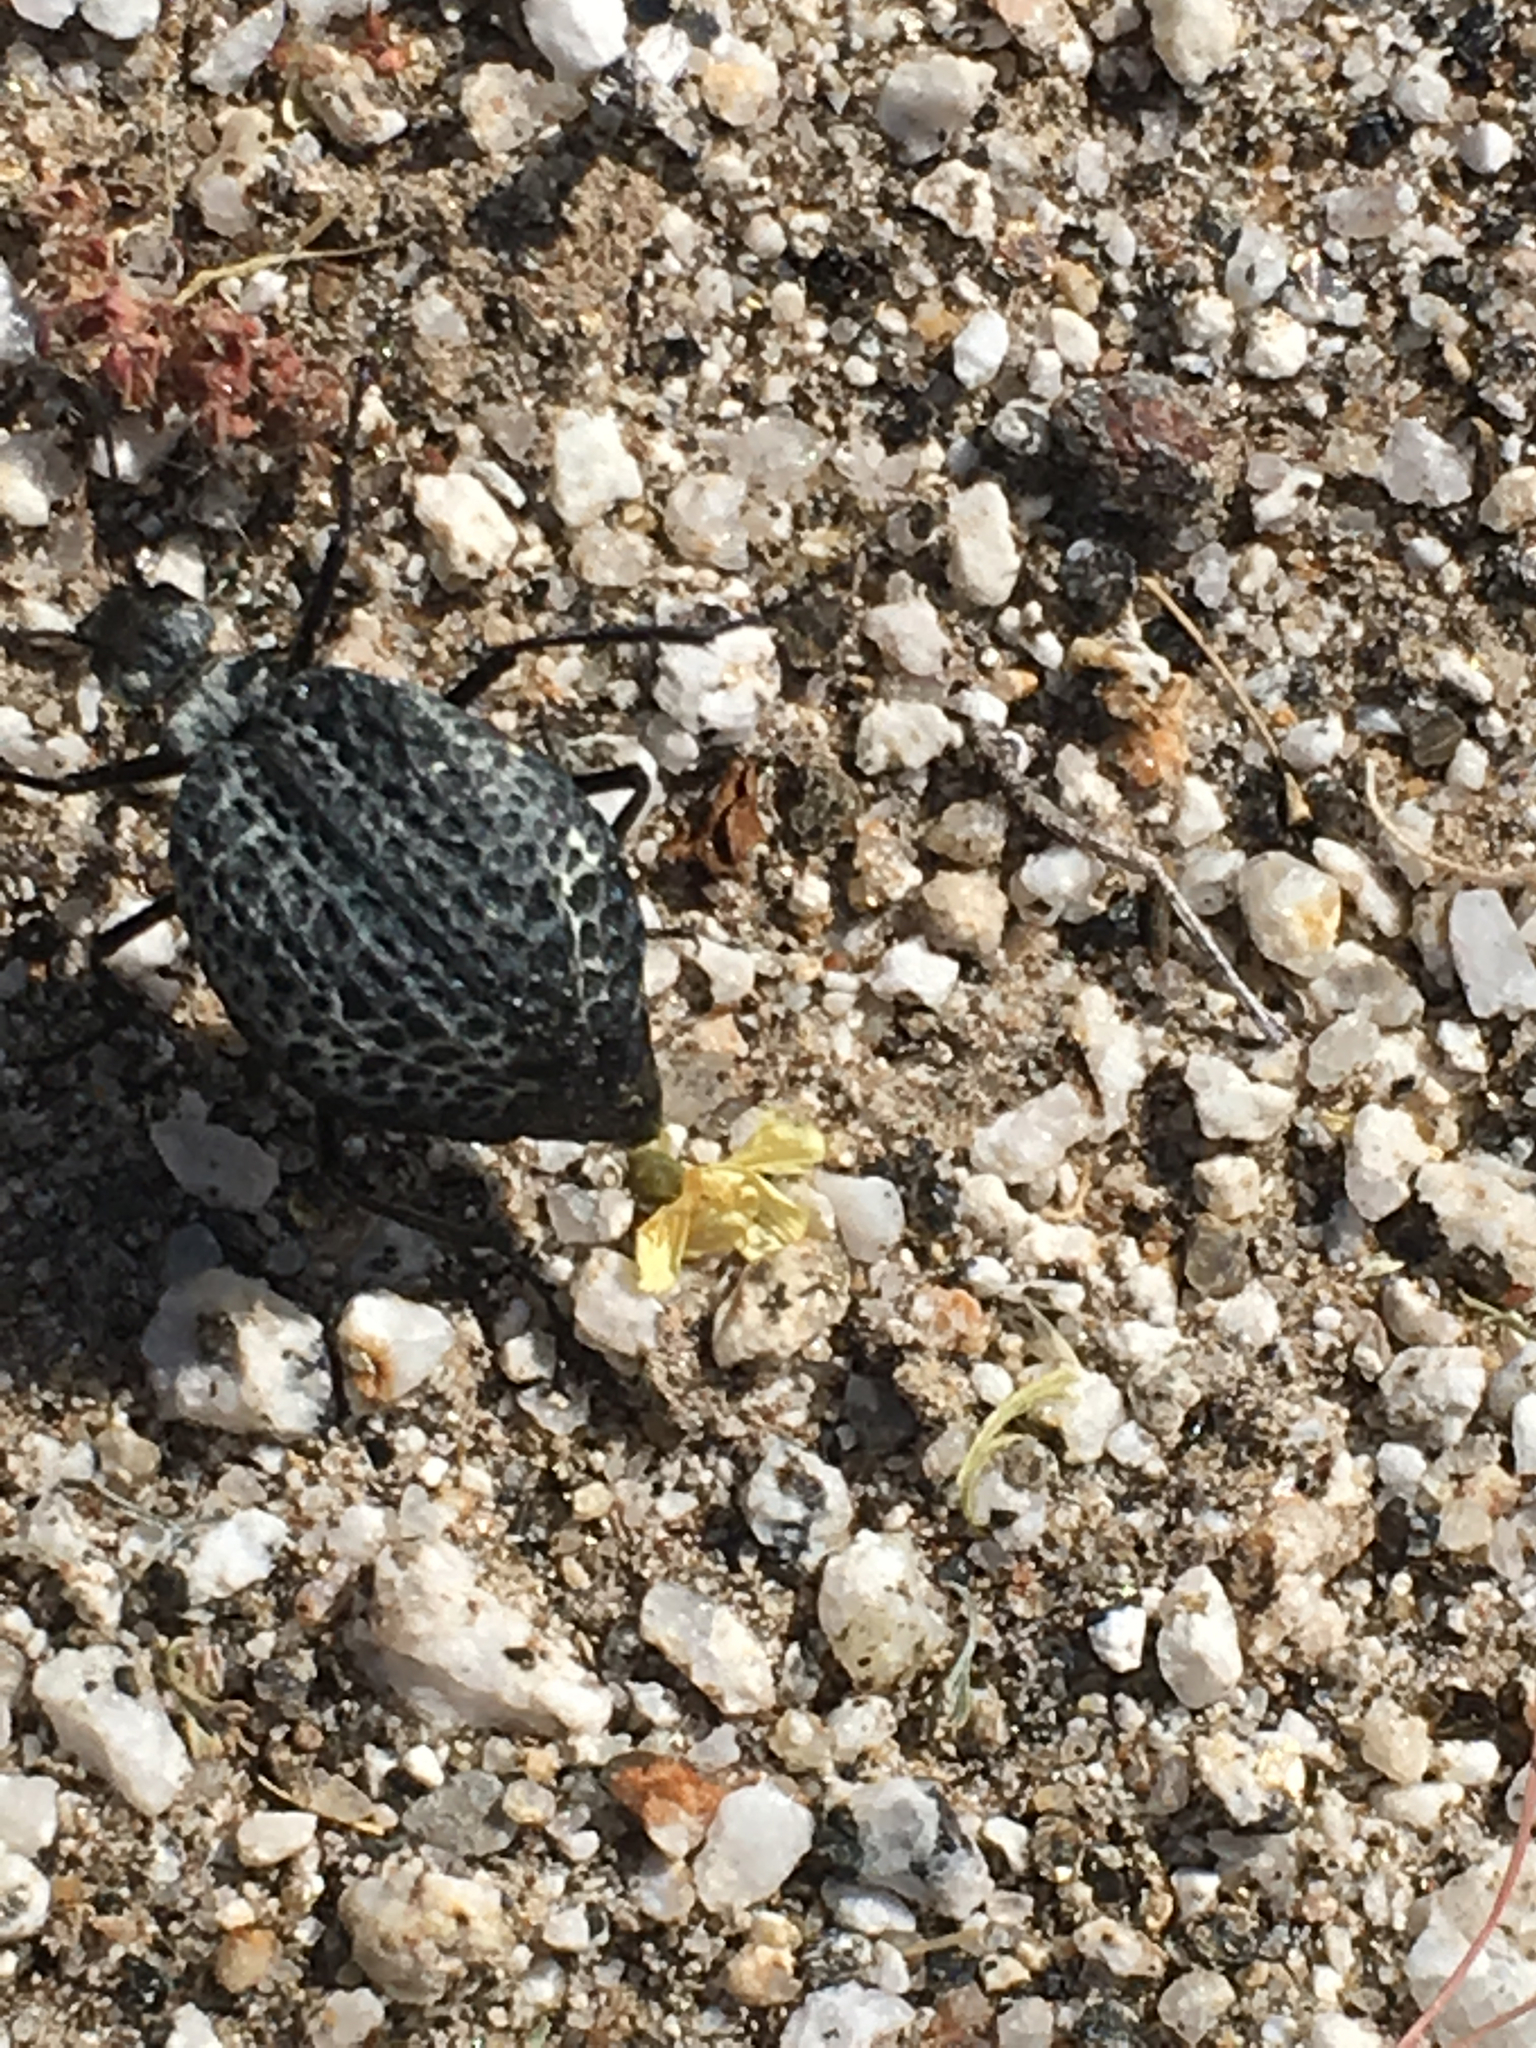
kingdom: Animalia
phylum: Arthropoda
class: Insecta
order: Coleoptera
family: Meloidae
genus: Cysteodemus
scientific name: Cysteodemus armatus
